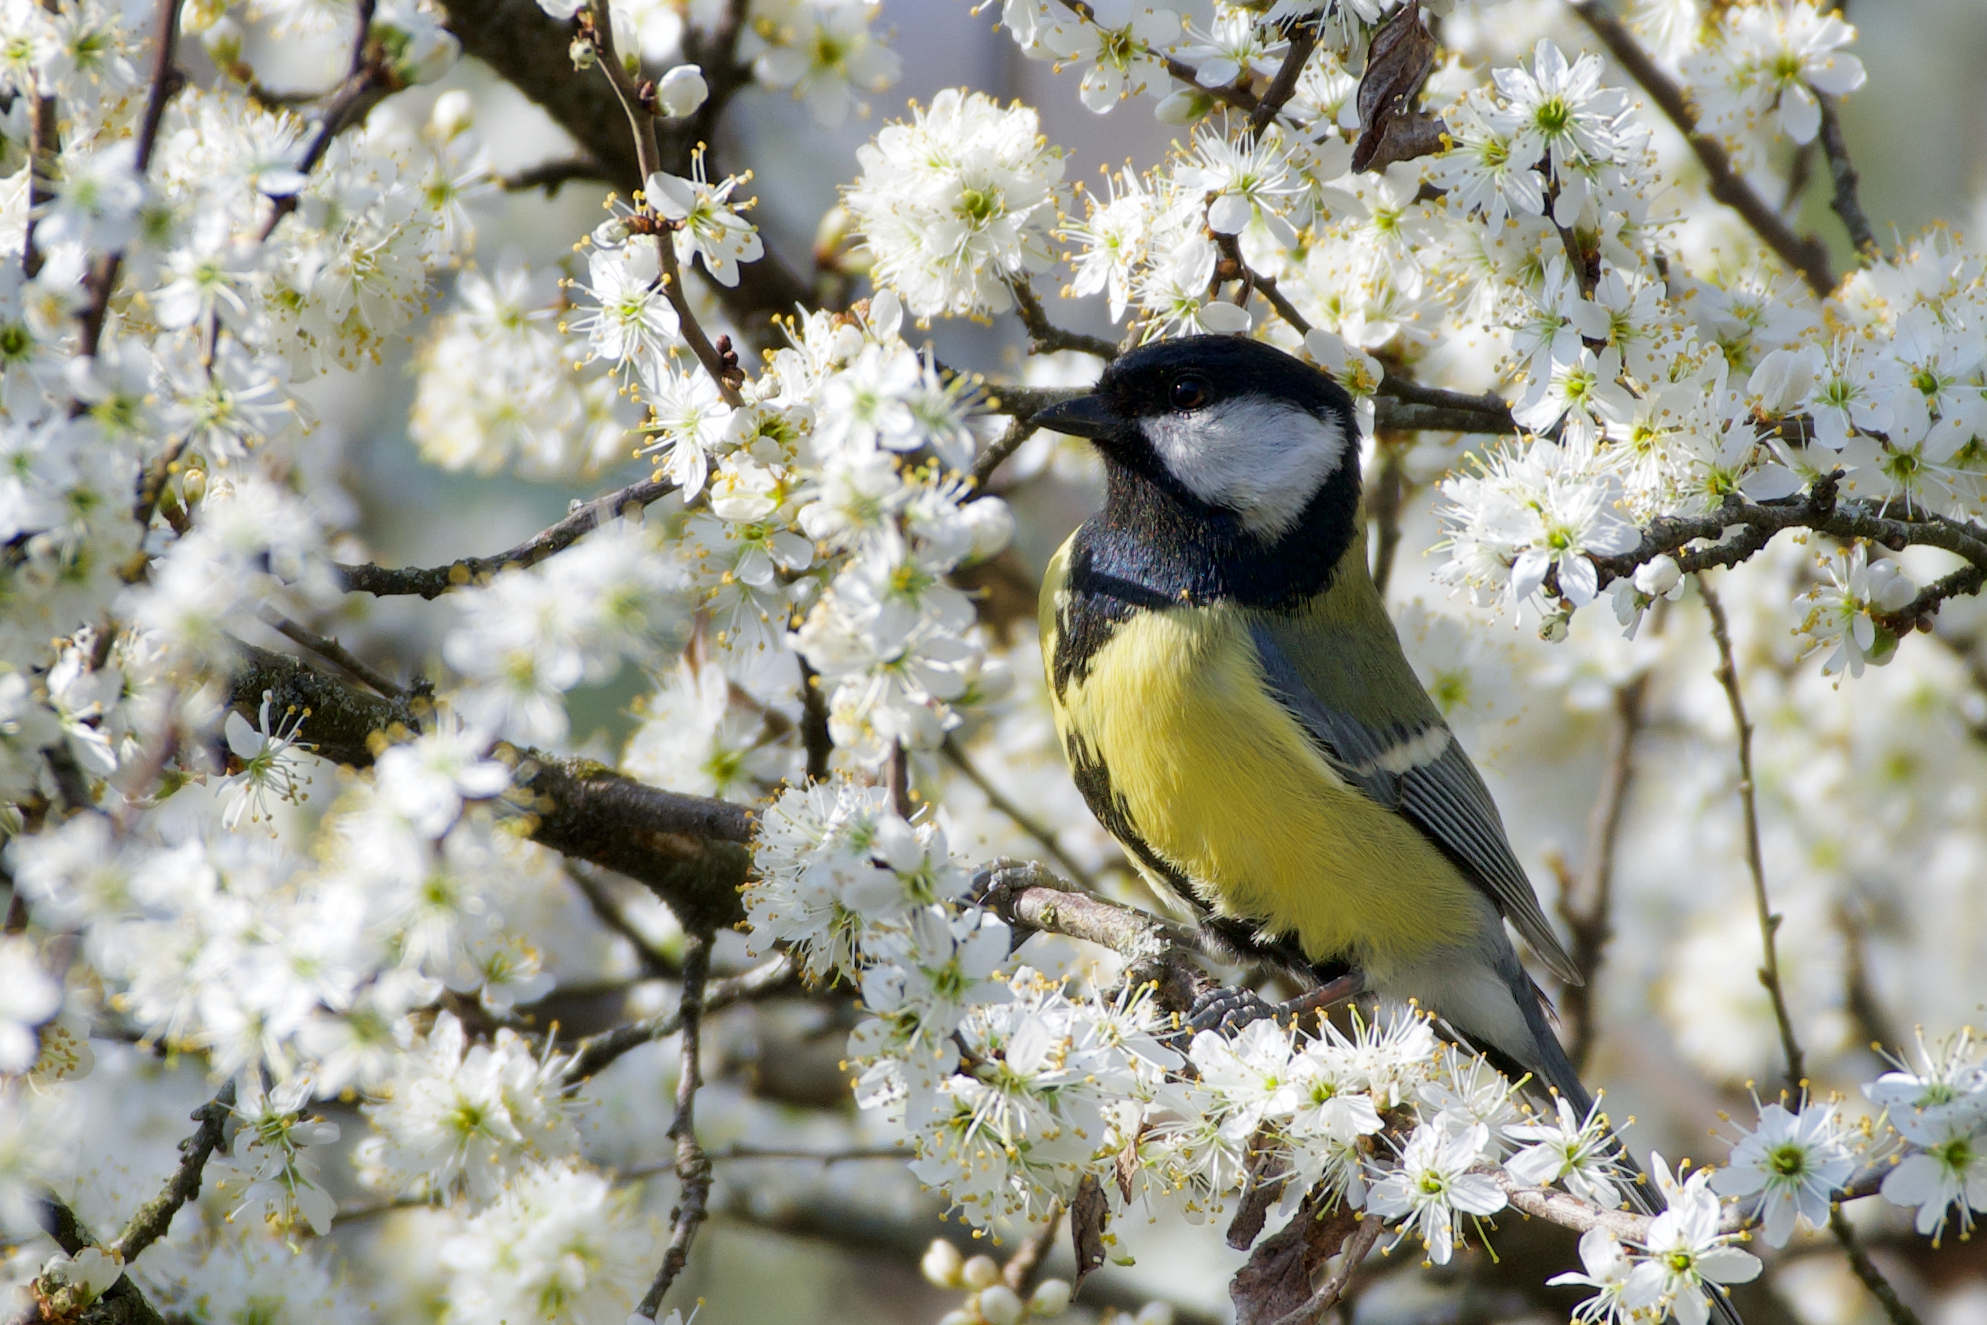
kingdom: Animalia
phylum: Chordata
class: Aves
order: Passeriformes
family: Paridae
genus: Parus
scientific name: Parus major
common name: Great tit
